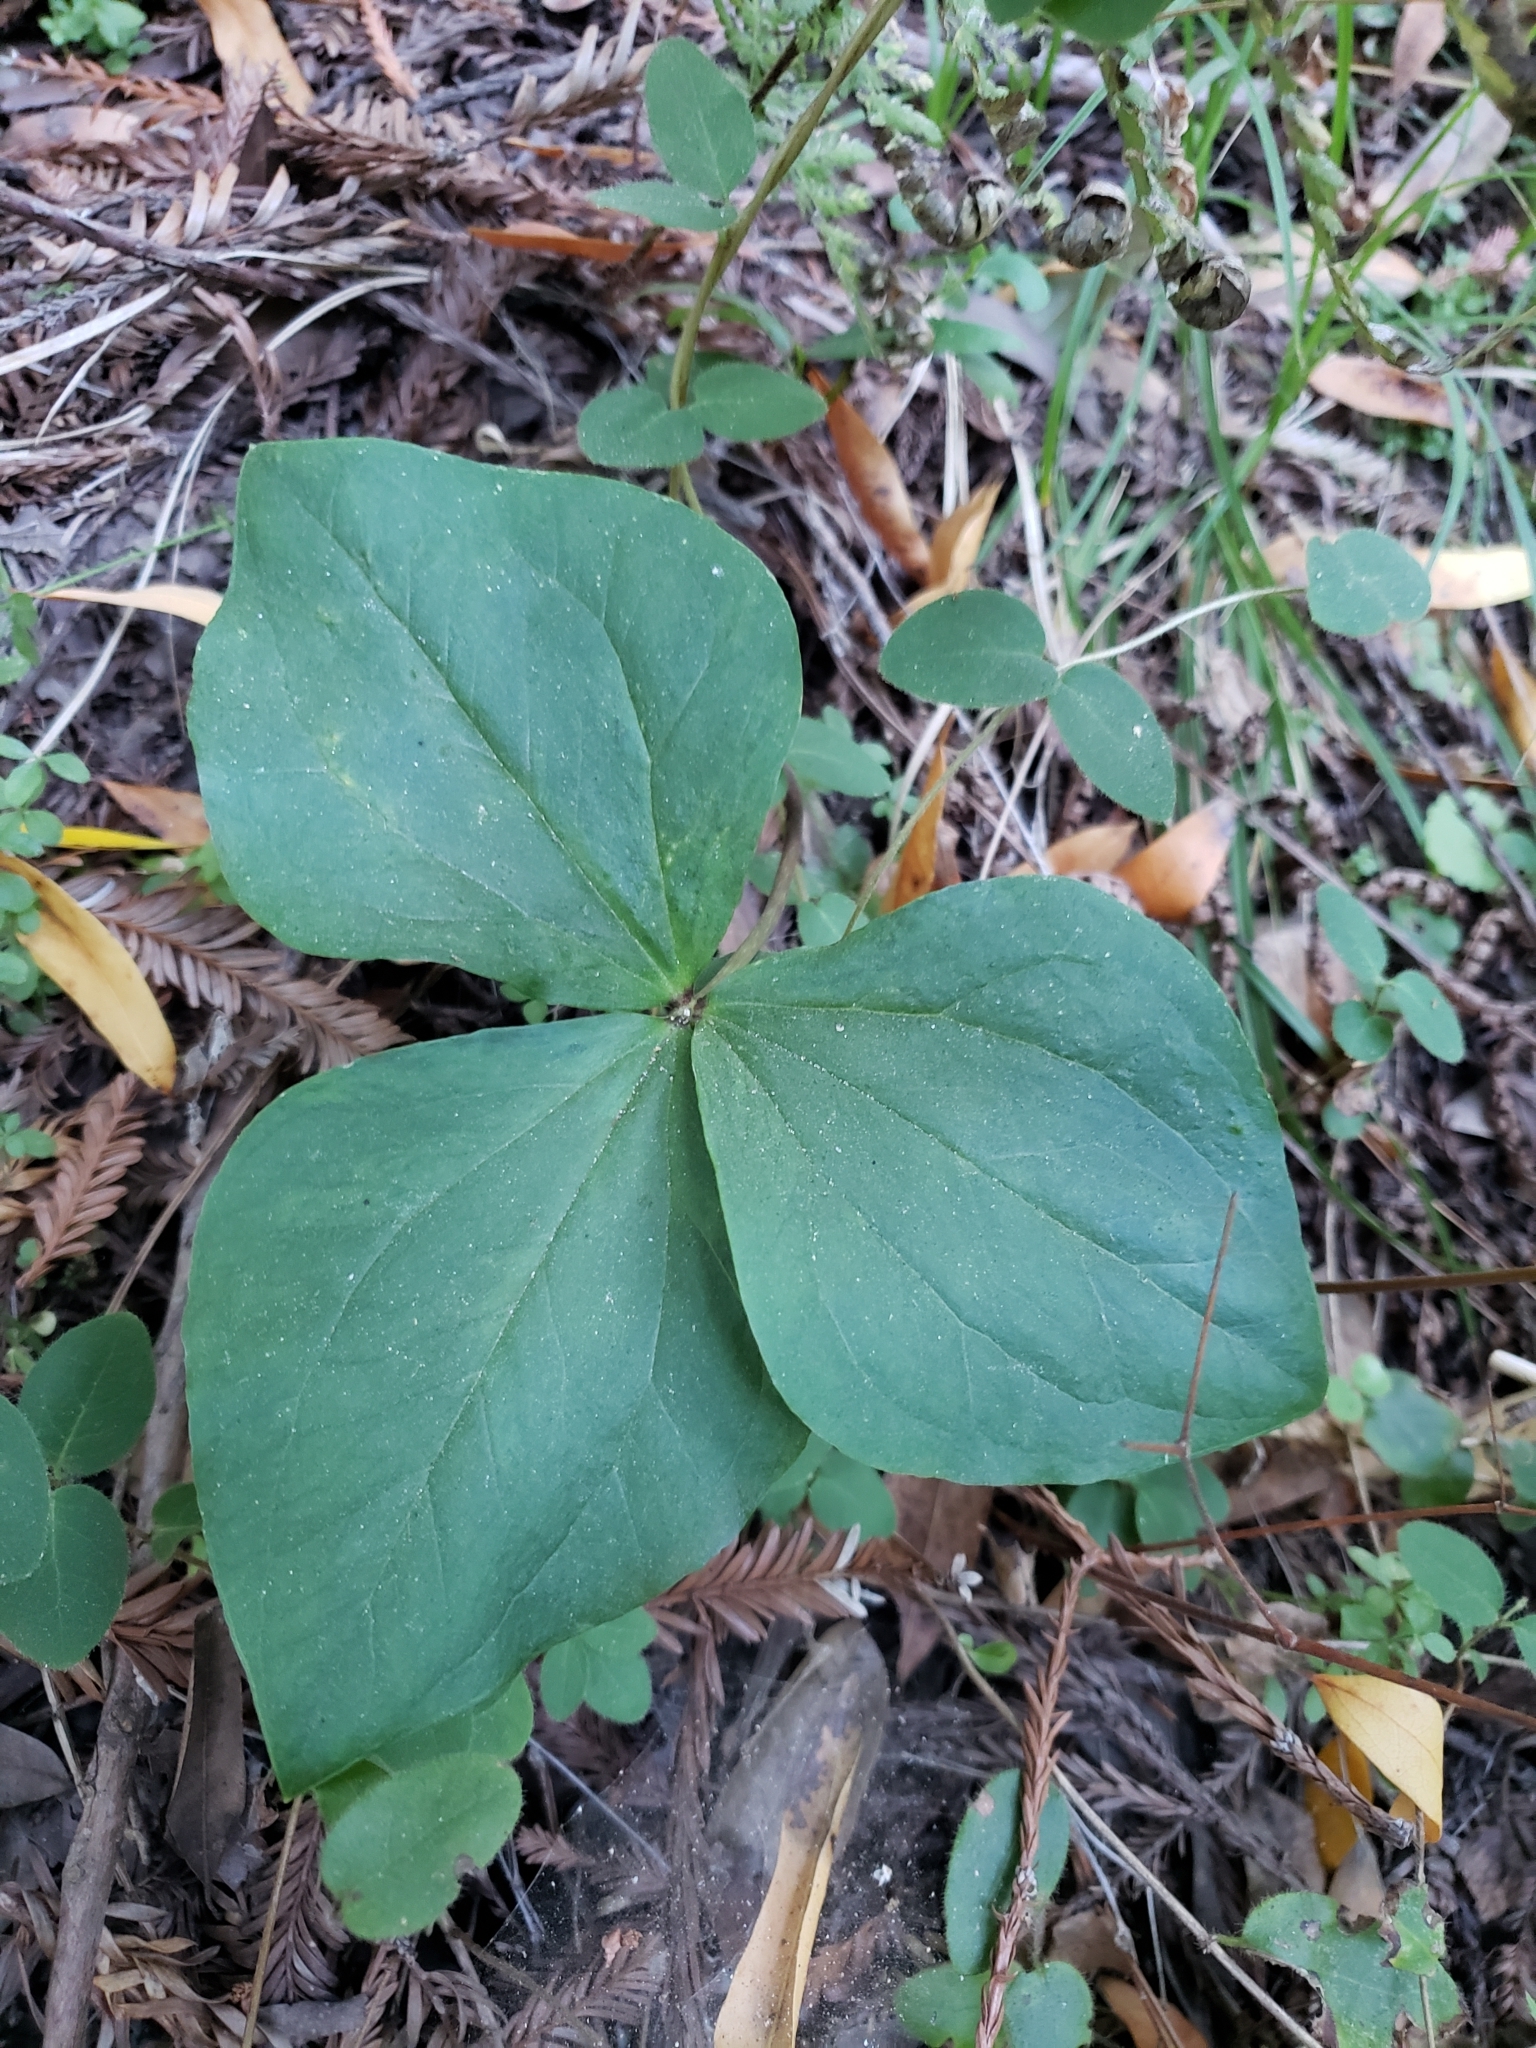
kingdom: Plantae
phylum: Tracheophyta
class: Liliopsida
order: Liliales
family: Melanthiaceae
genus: Trillium
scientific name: Trillium ovatum
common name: Pacific trillium
